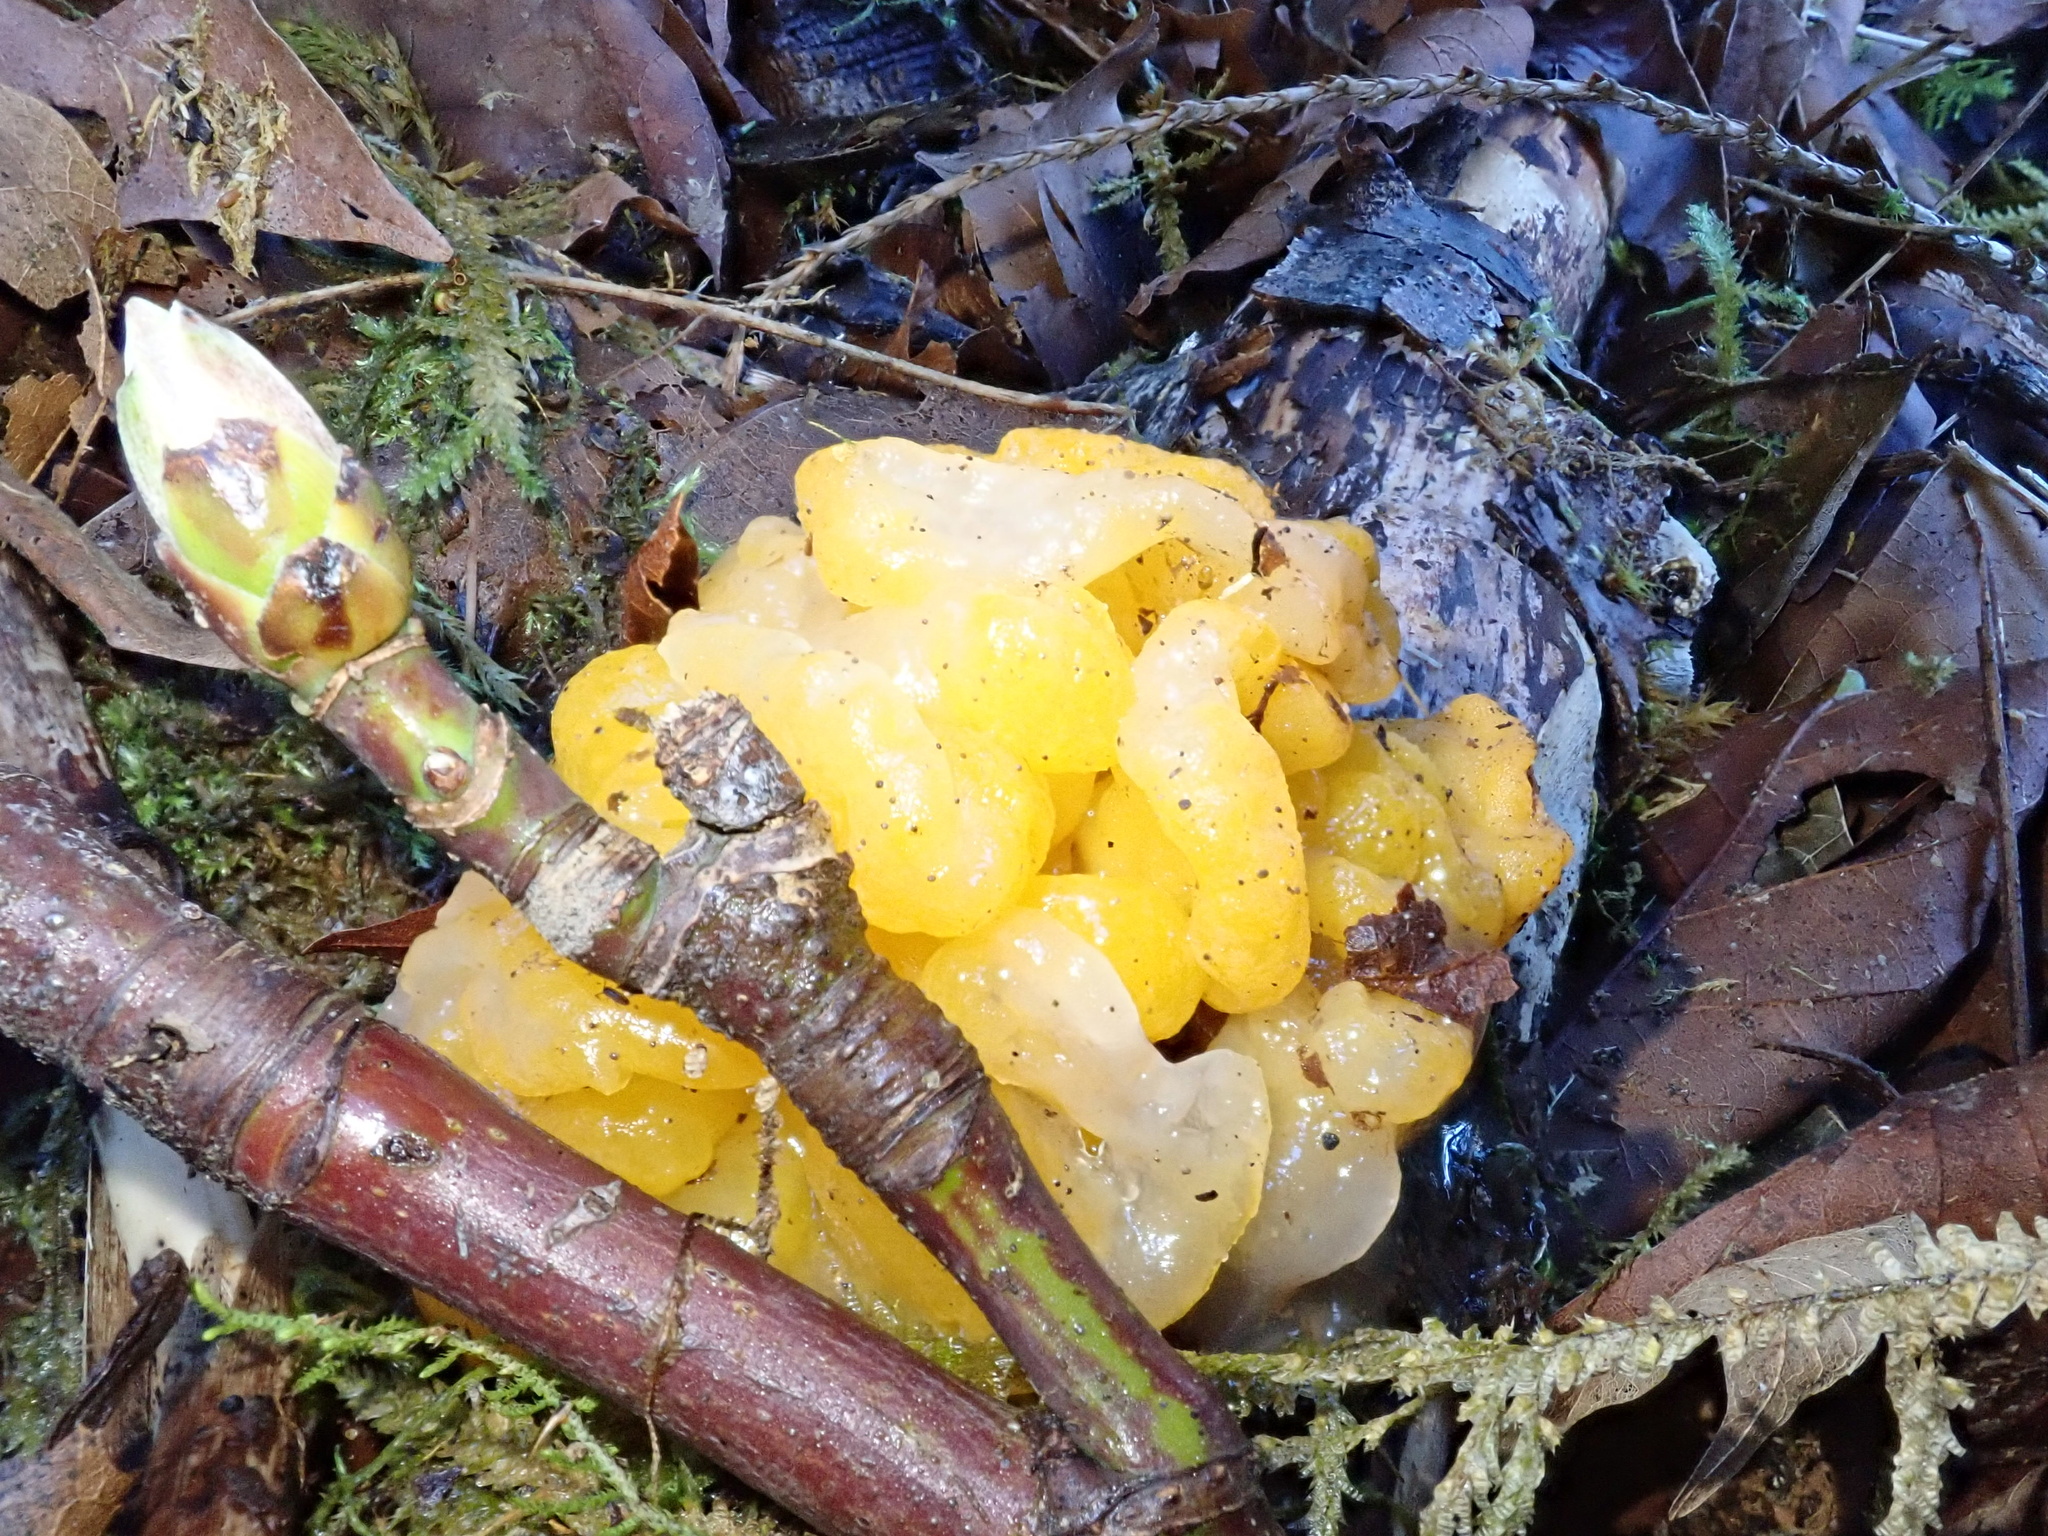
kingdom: Fungi
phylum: Basidiomycota
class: Tremellomycetes
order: Tremellales
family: Tremellaceae
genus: Tremella
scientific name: Tremella mesenterica
